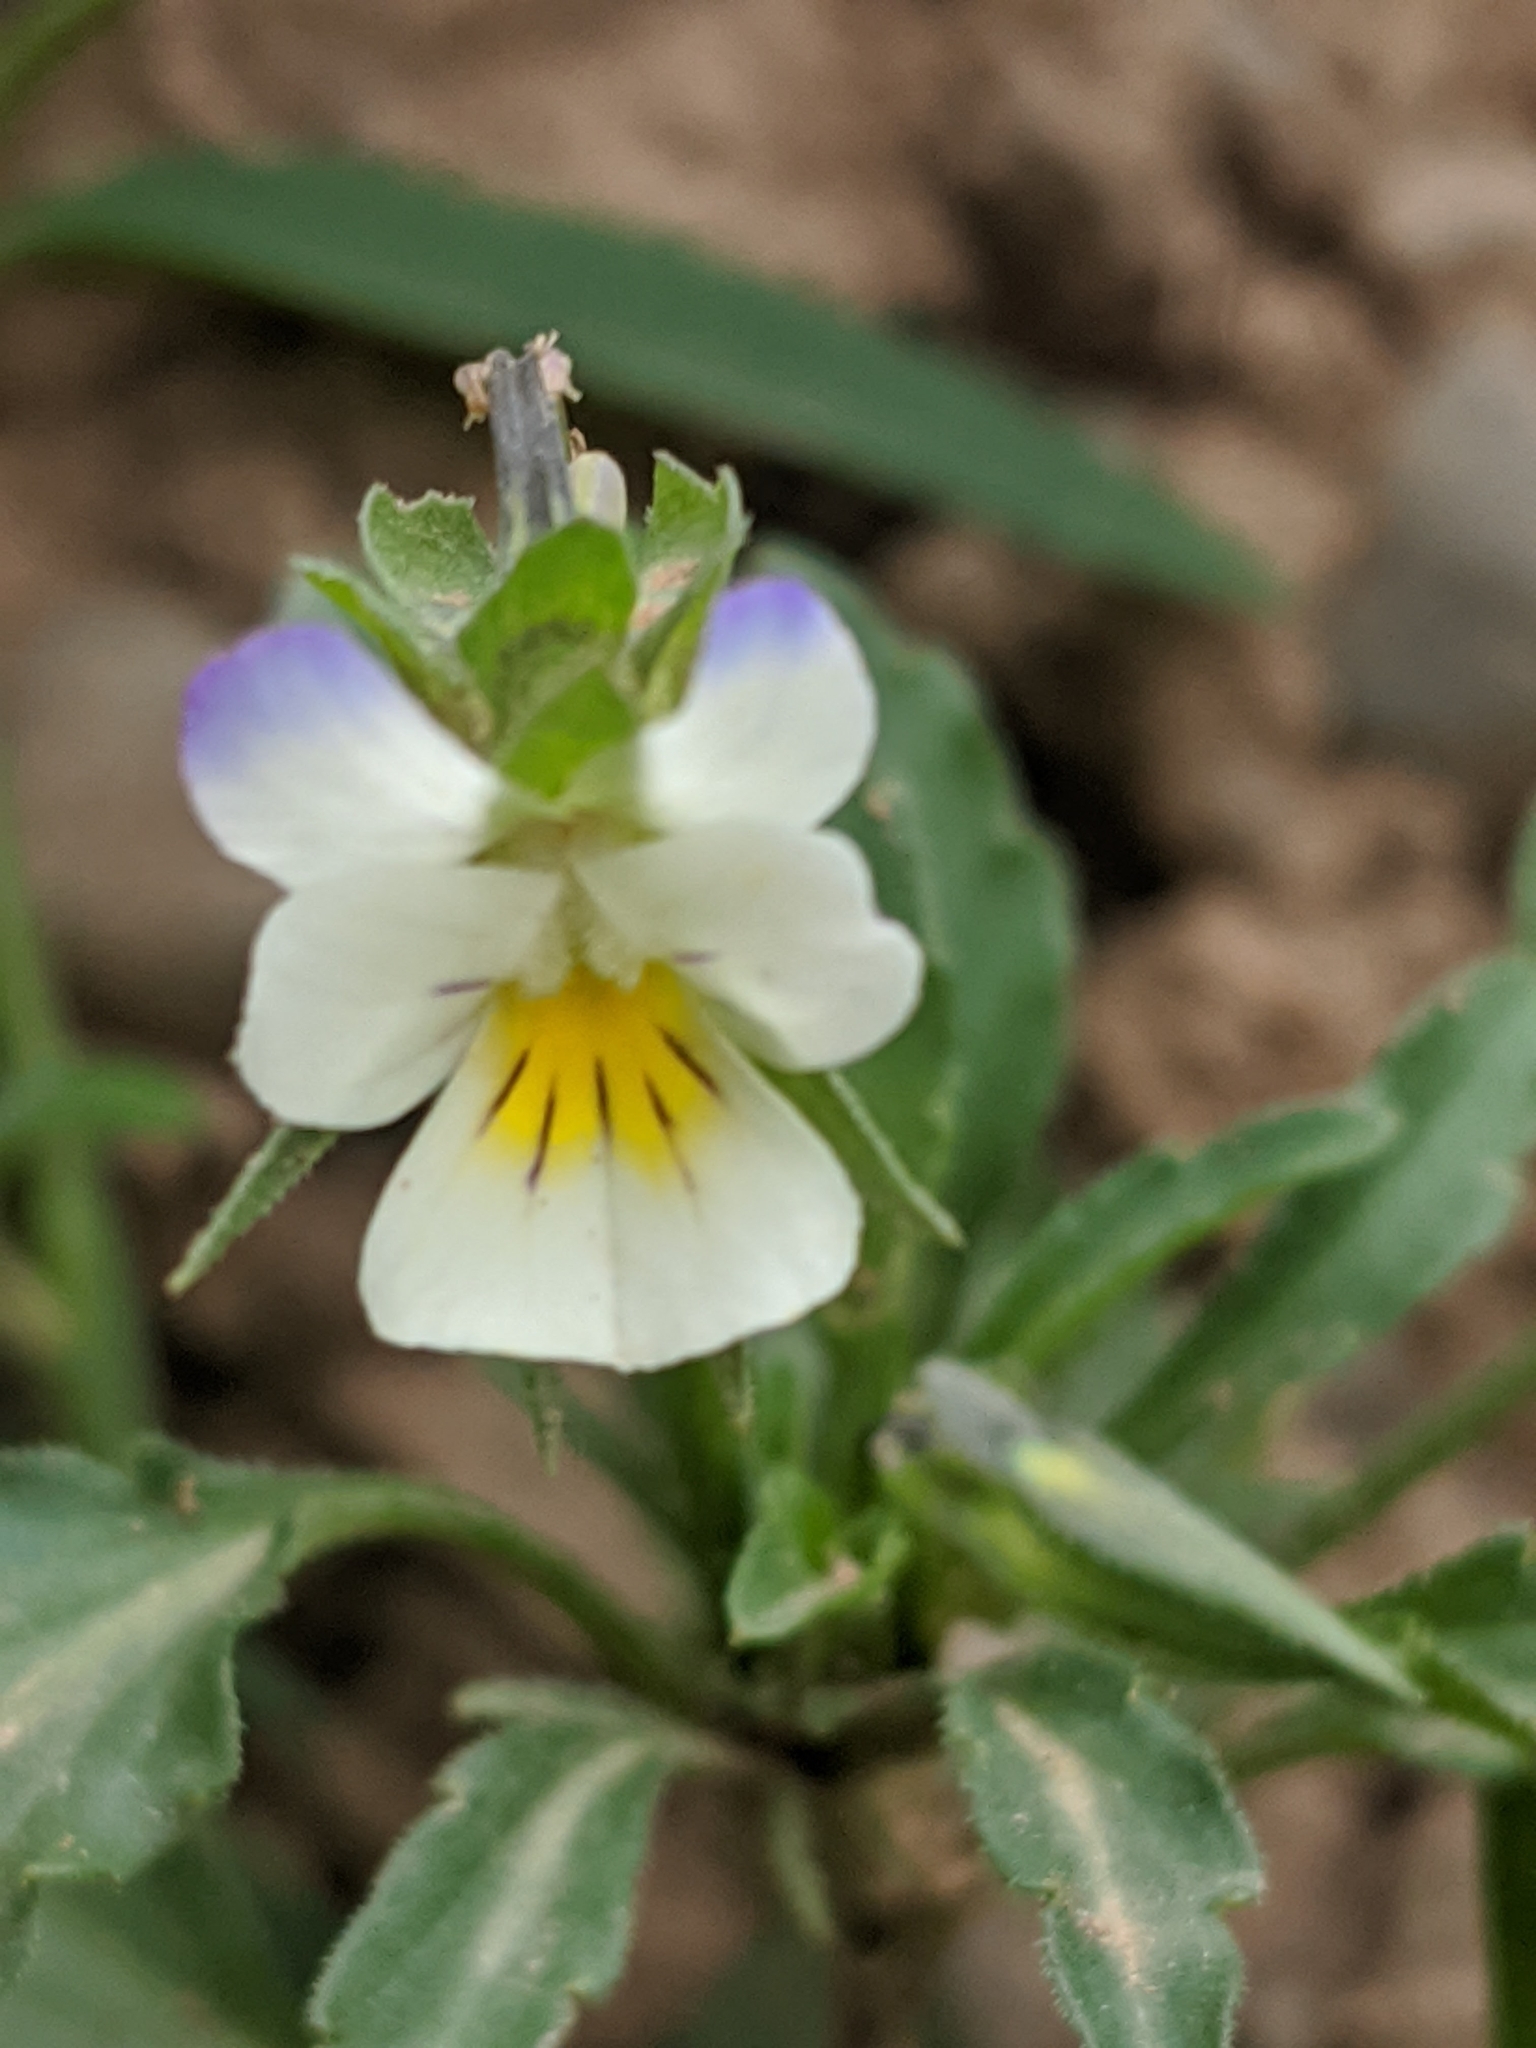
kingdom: Plantae
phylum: Tracheophyta
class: Magnoliopsida
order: Malpighiales
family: Violaceae
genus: Viola
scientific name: Viola arvensis
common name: Field pansy
